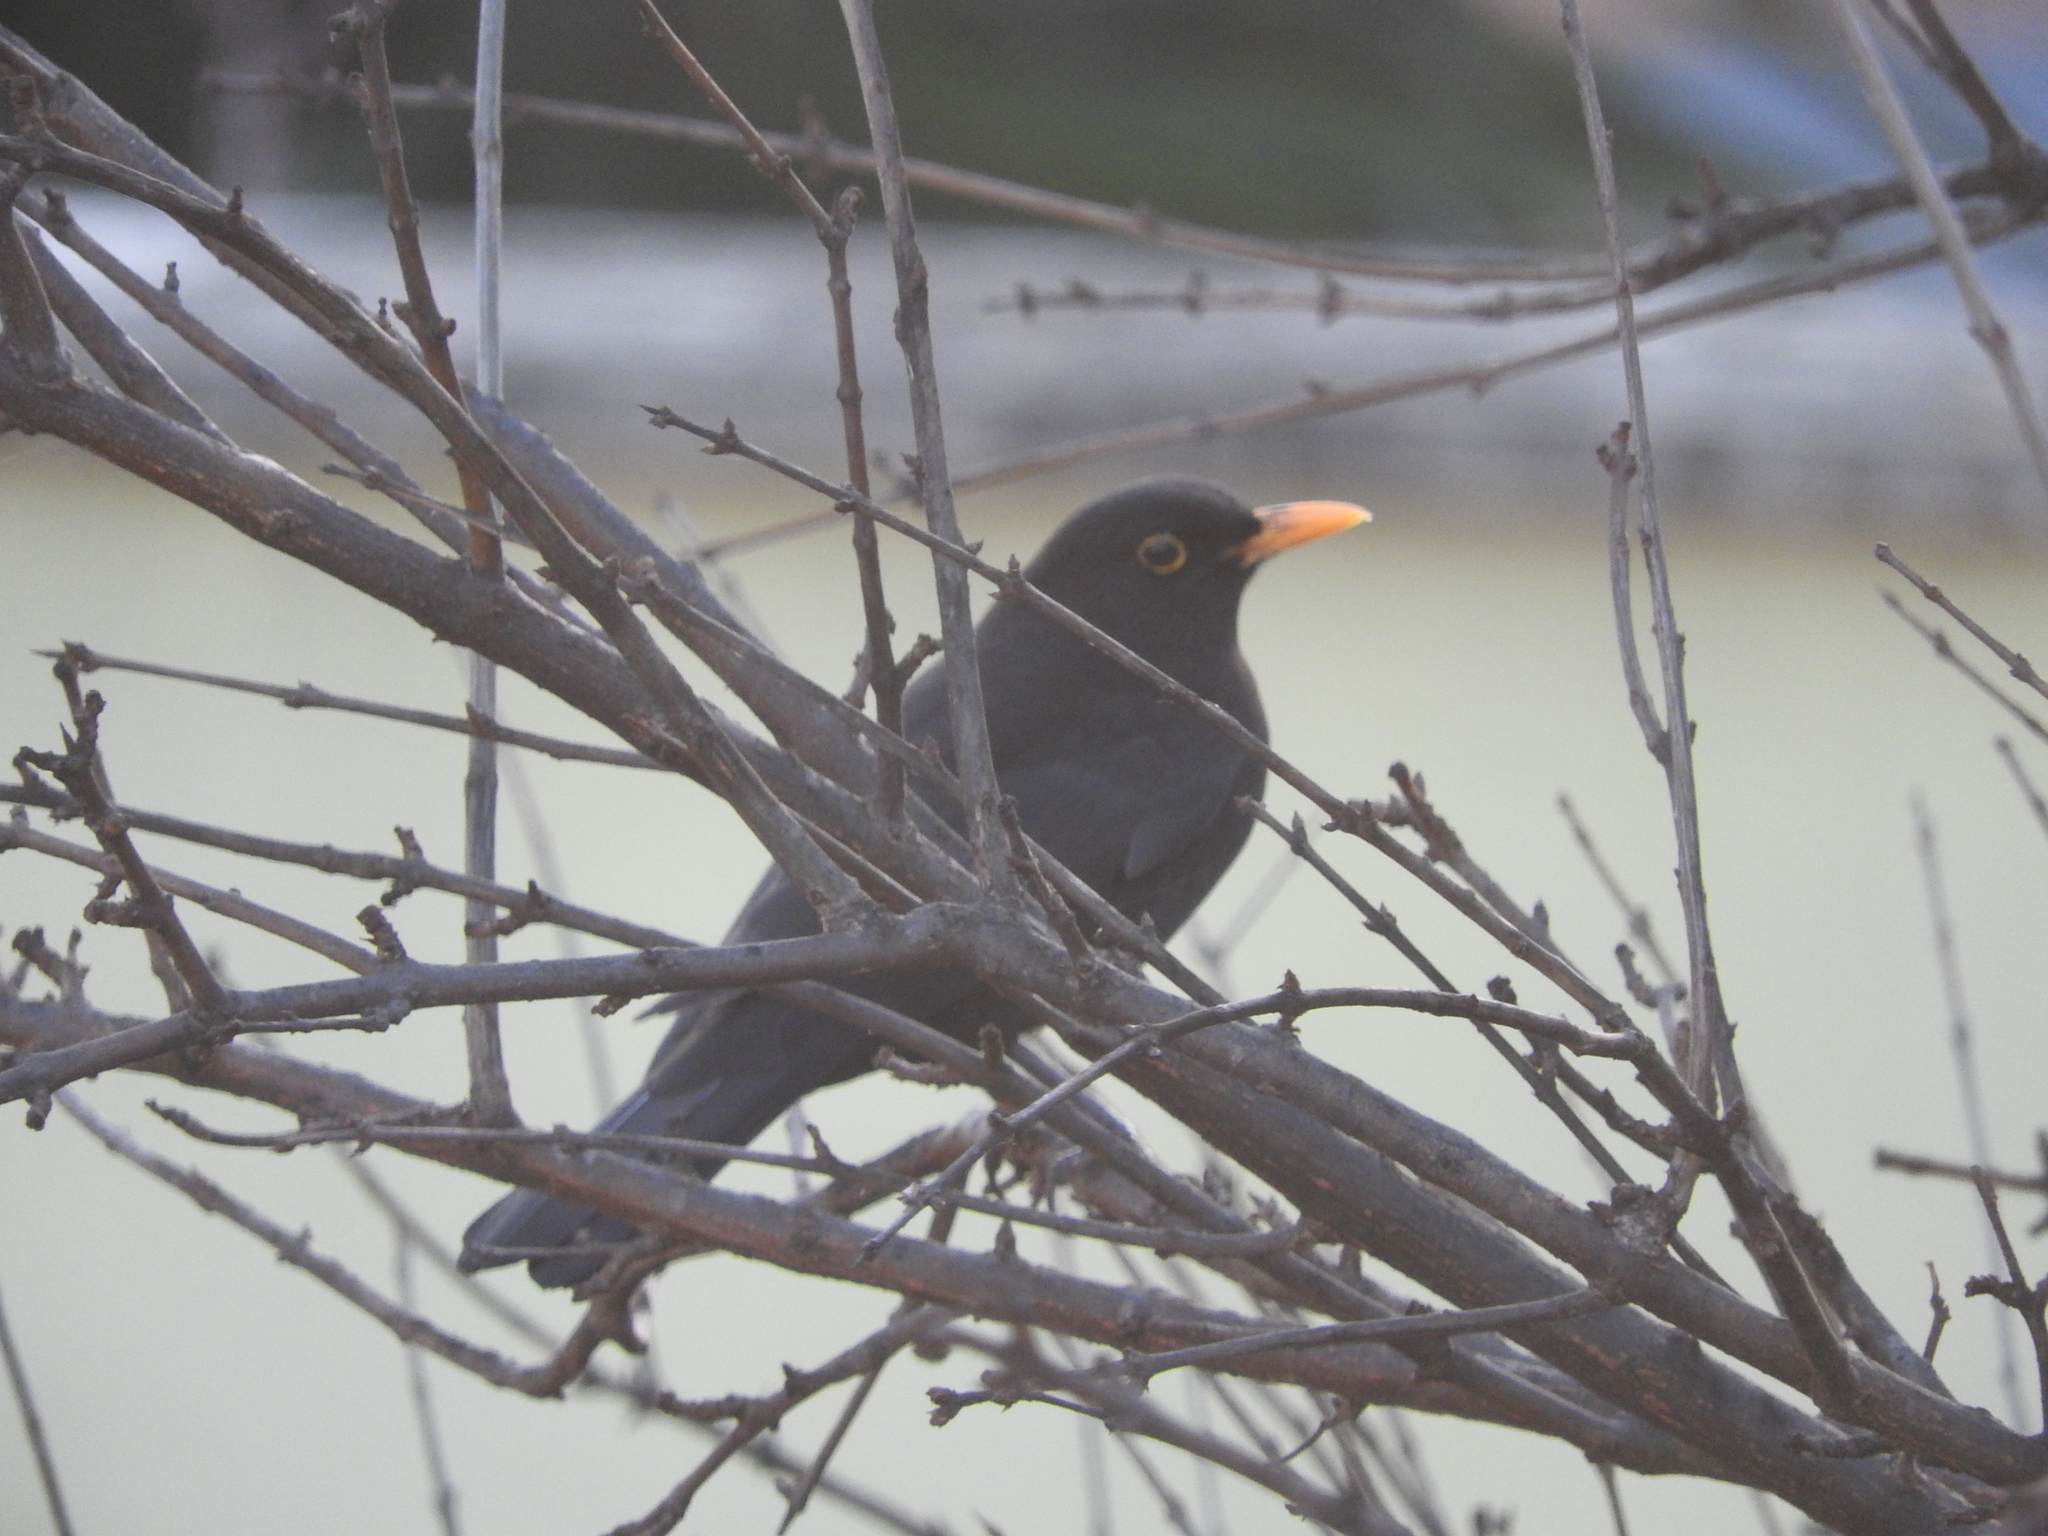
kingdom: Animalia
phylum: Chordata
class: Aves
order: Passeriformes
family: Turdidae
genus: Turdus
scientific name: Turdus merula
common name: Common blackbird
